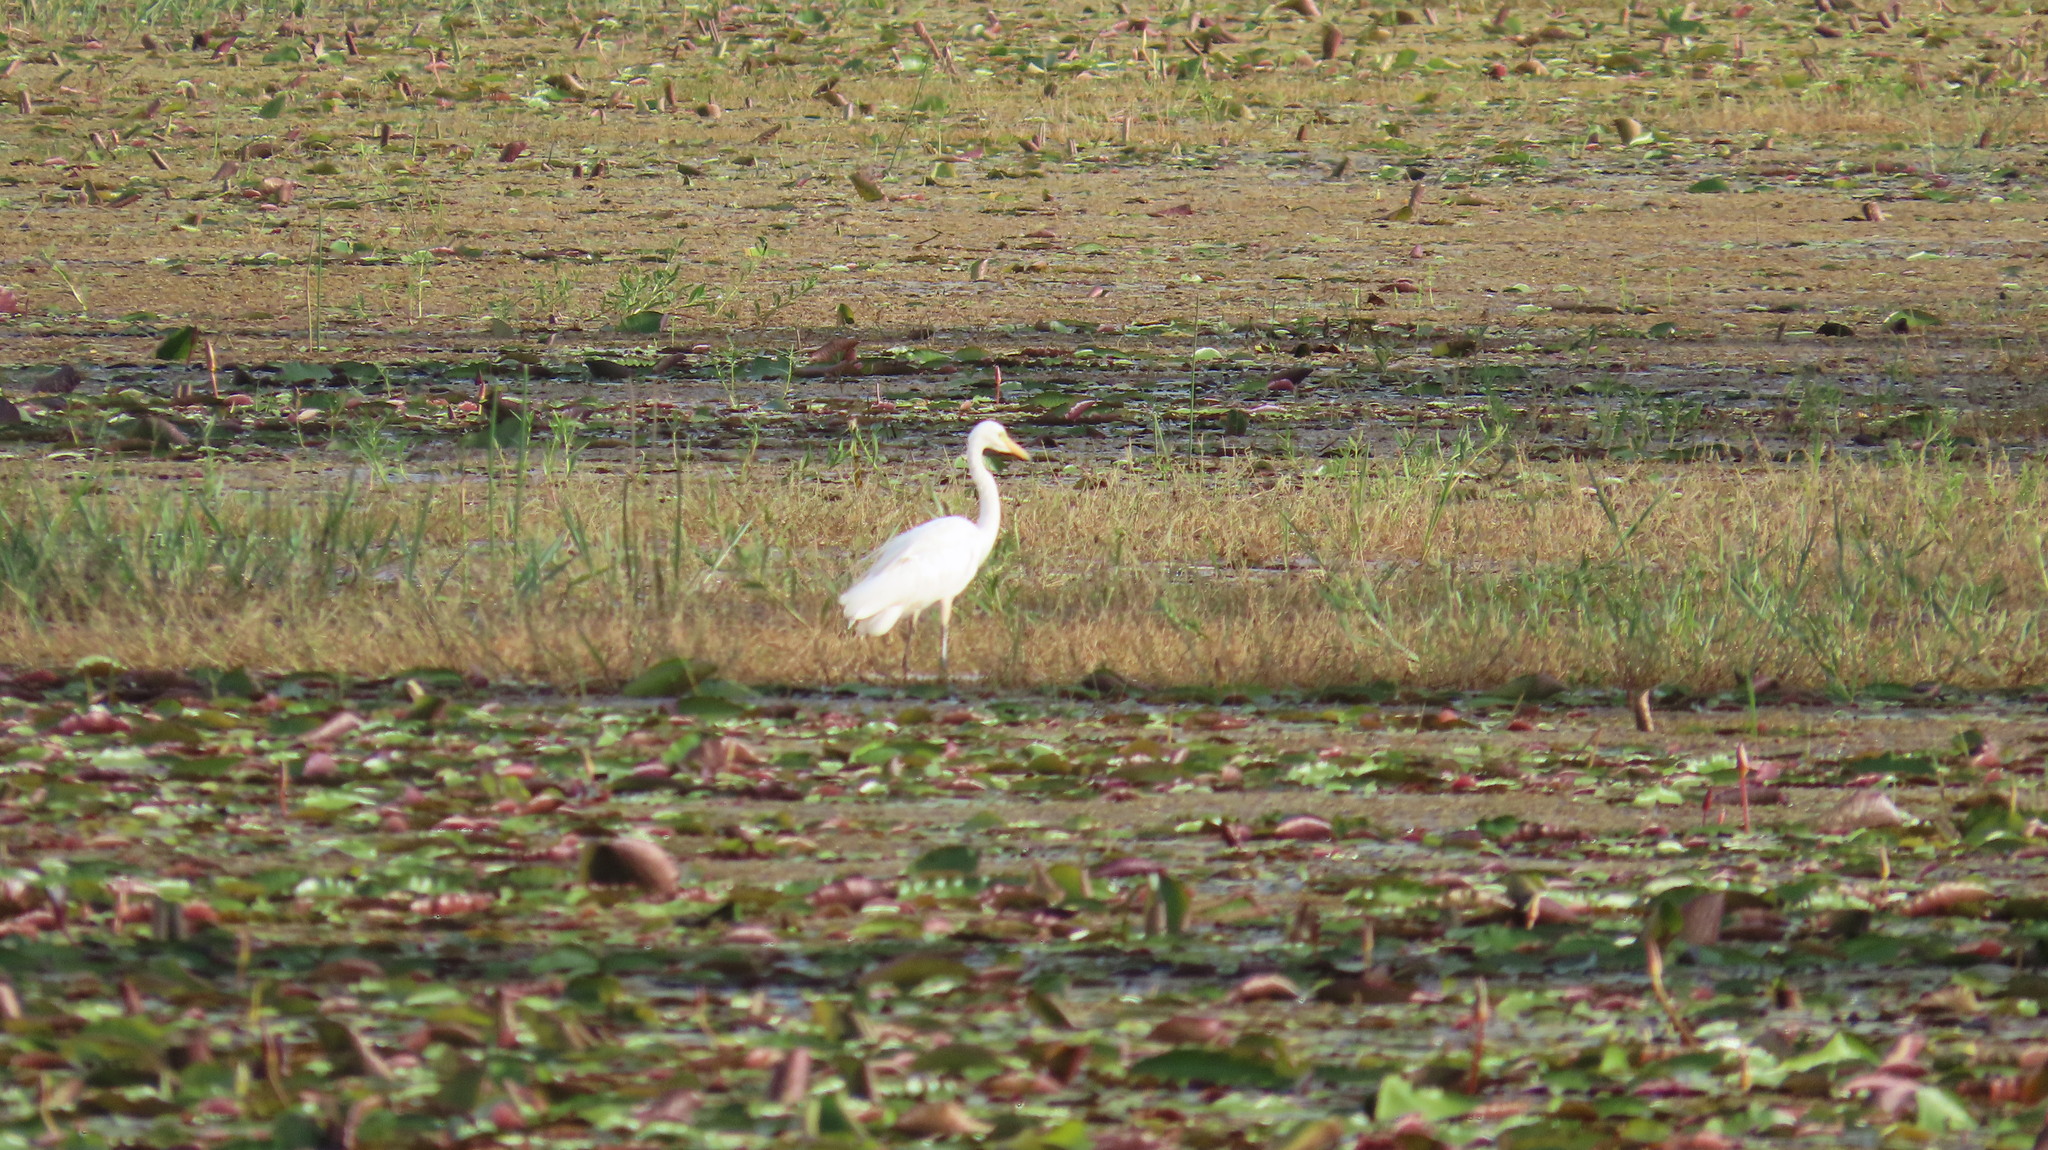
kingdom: Animalia
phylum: Chordata
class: Aves
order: Pelecaniformes
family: Ardeidae
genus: Egretta
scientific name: Egretta intermedia
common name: Intermediate egret
